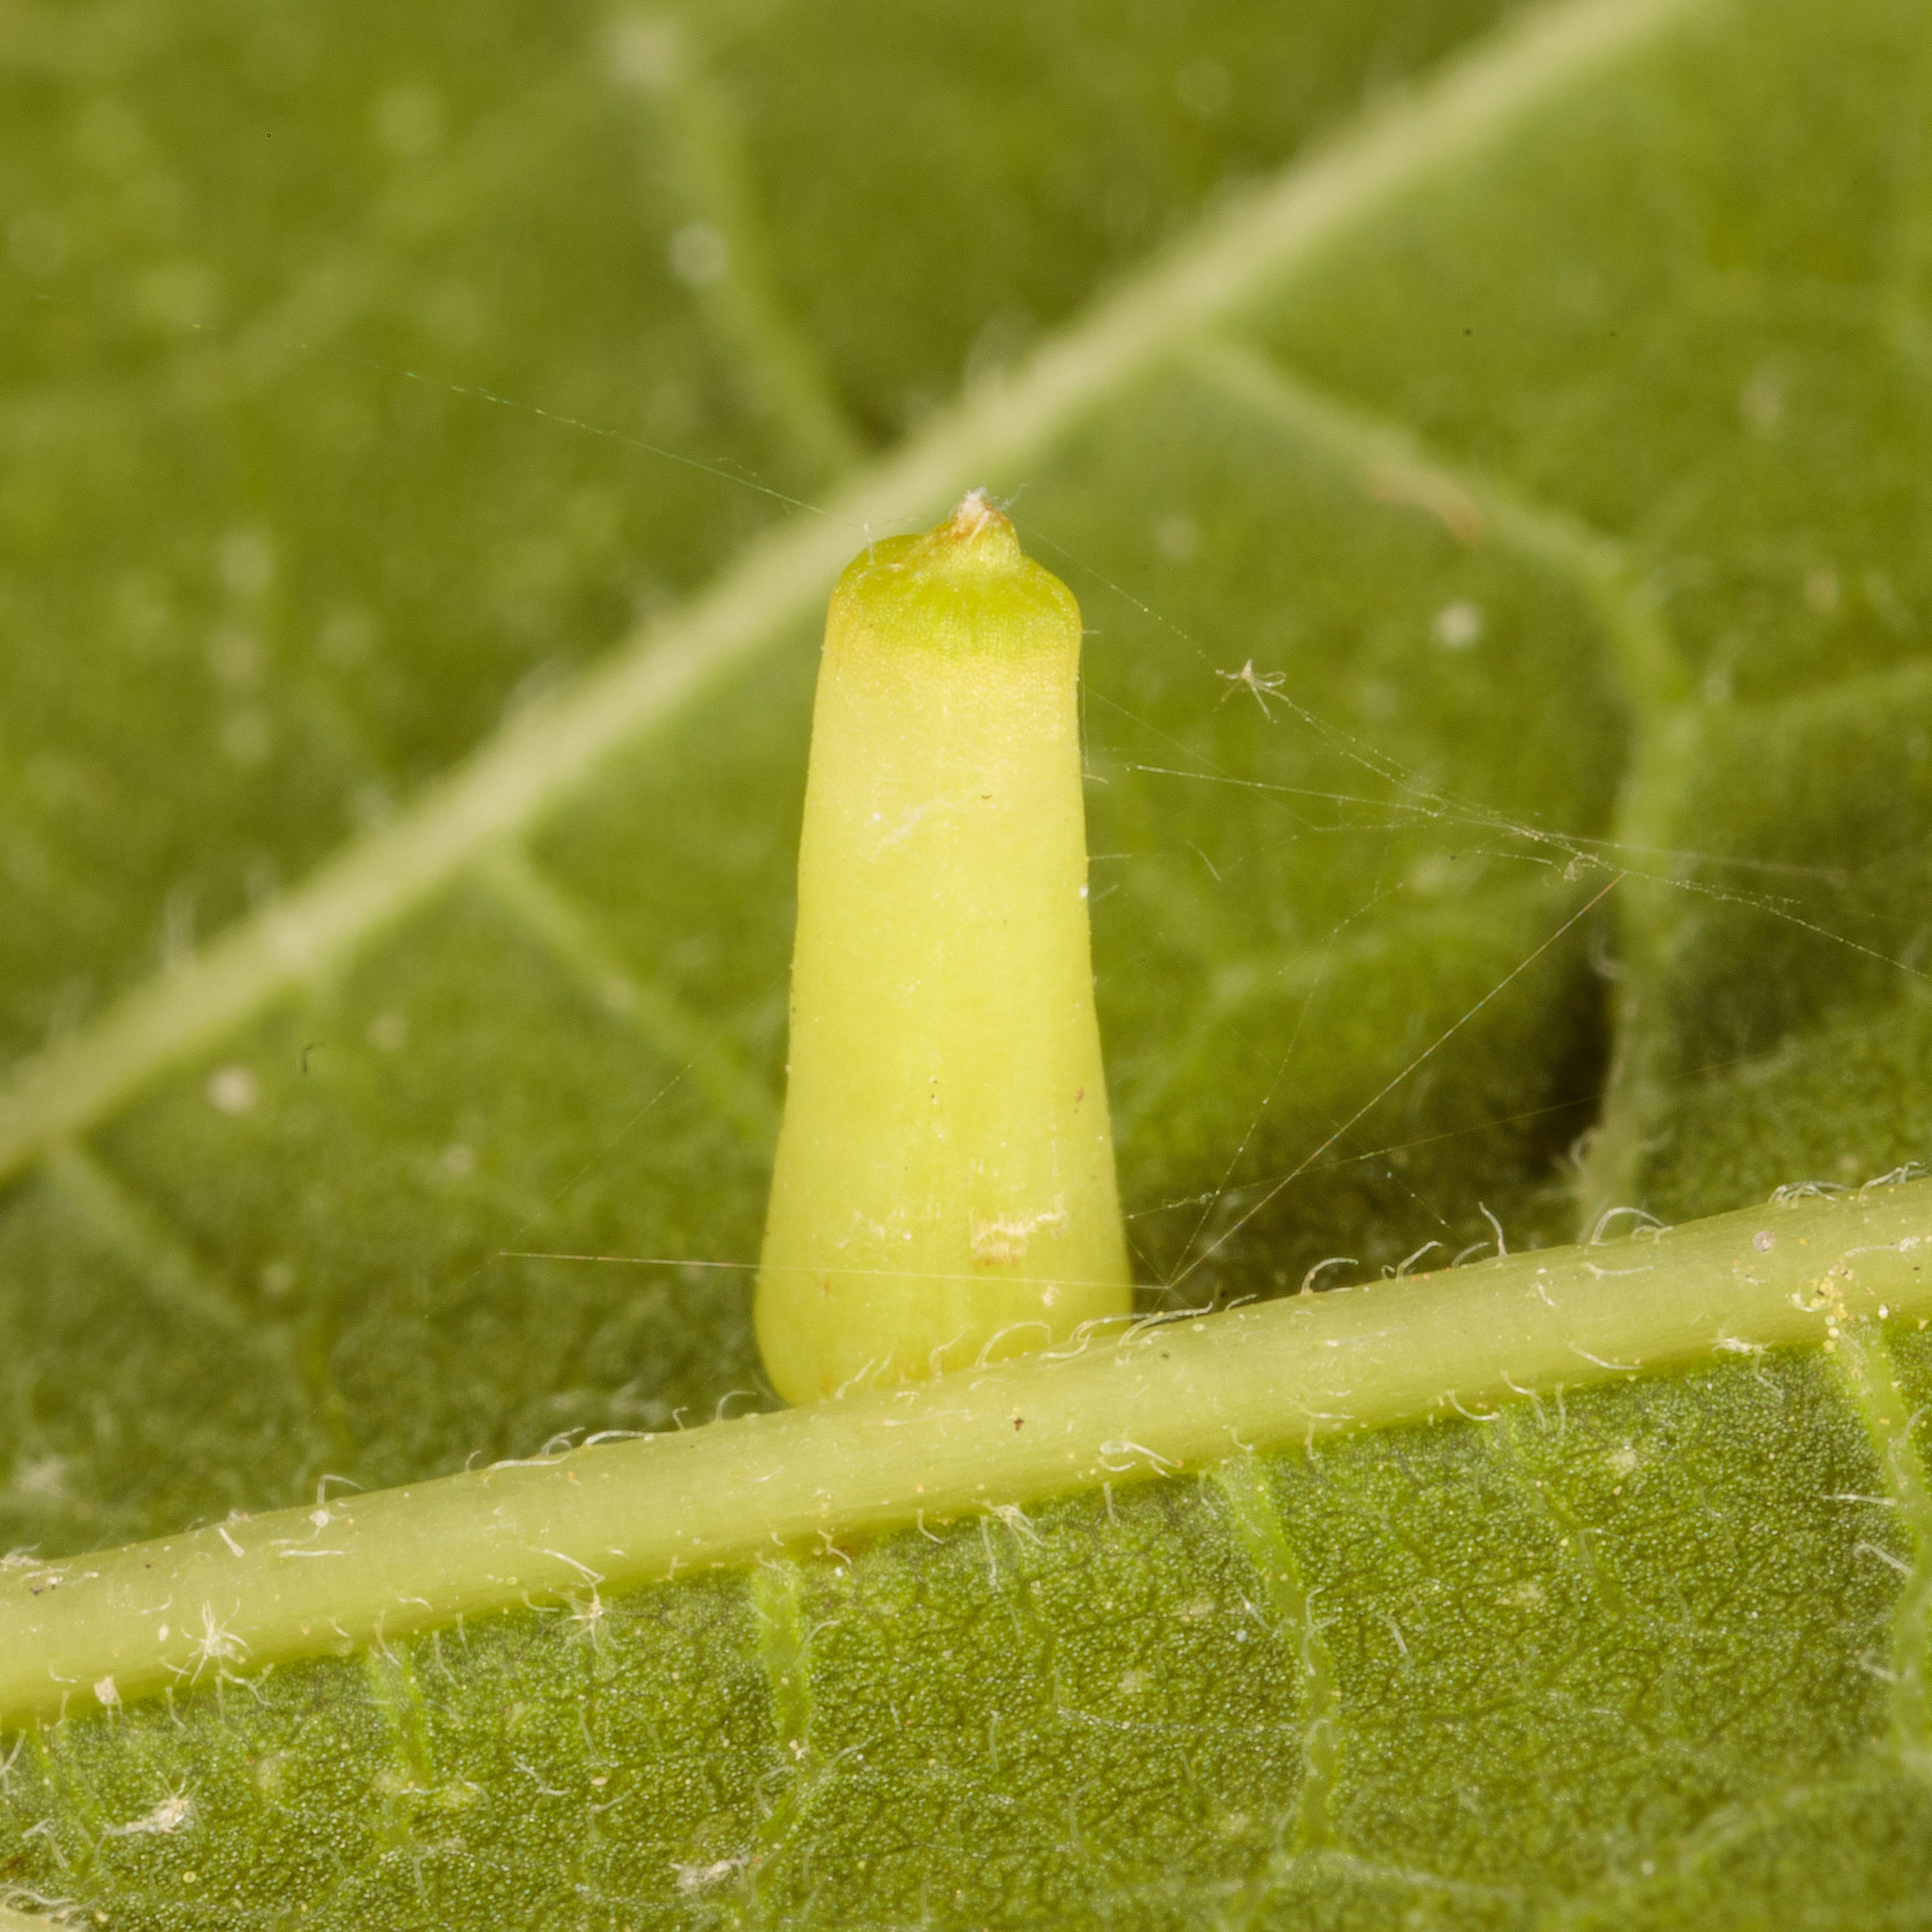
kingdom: Animalia
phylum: Arthropoda
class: Insecta
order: Diptera
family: Cecidomyiidae
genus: Celticecis
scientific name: Celticecis aciculata
